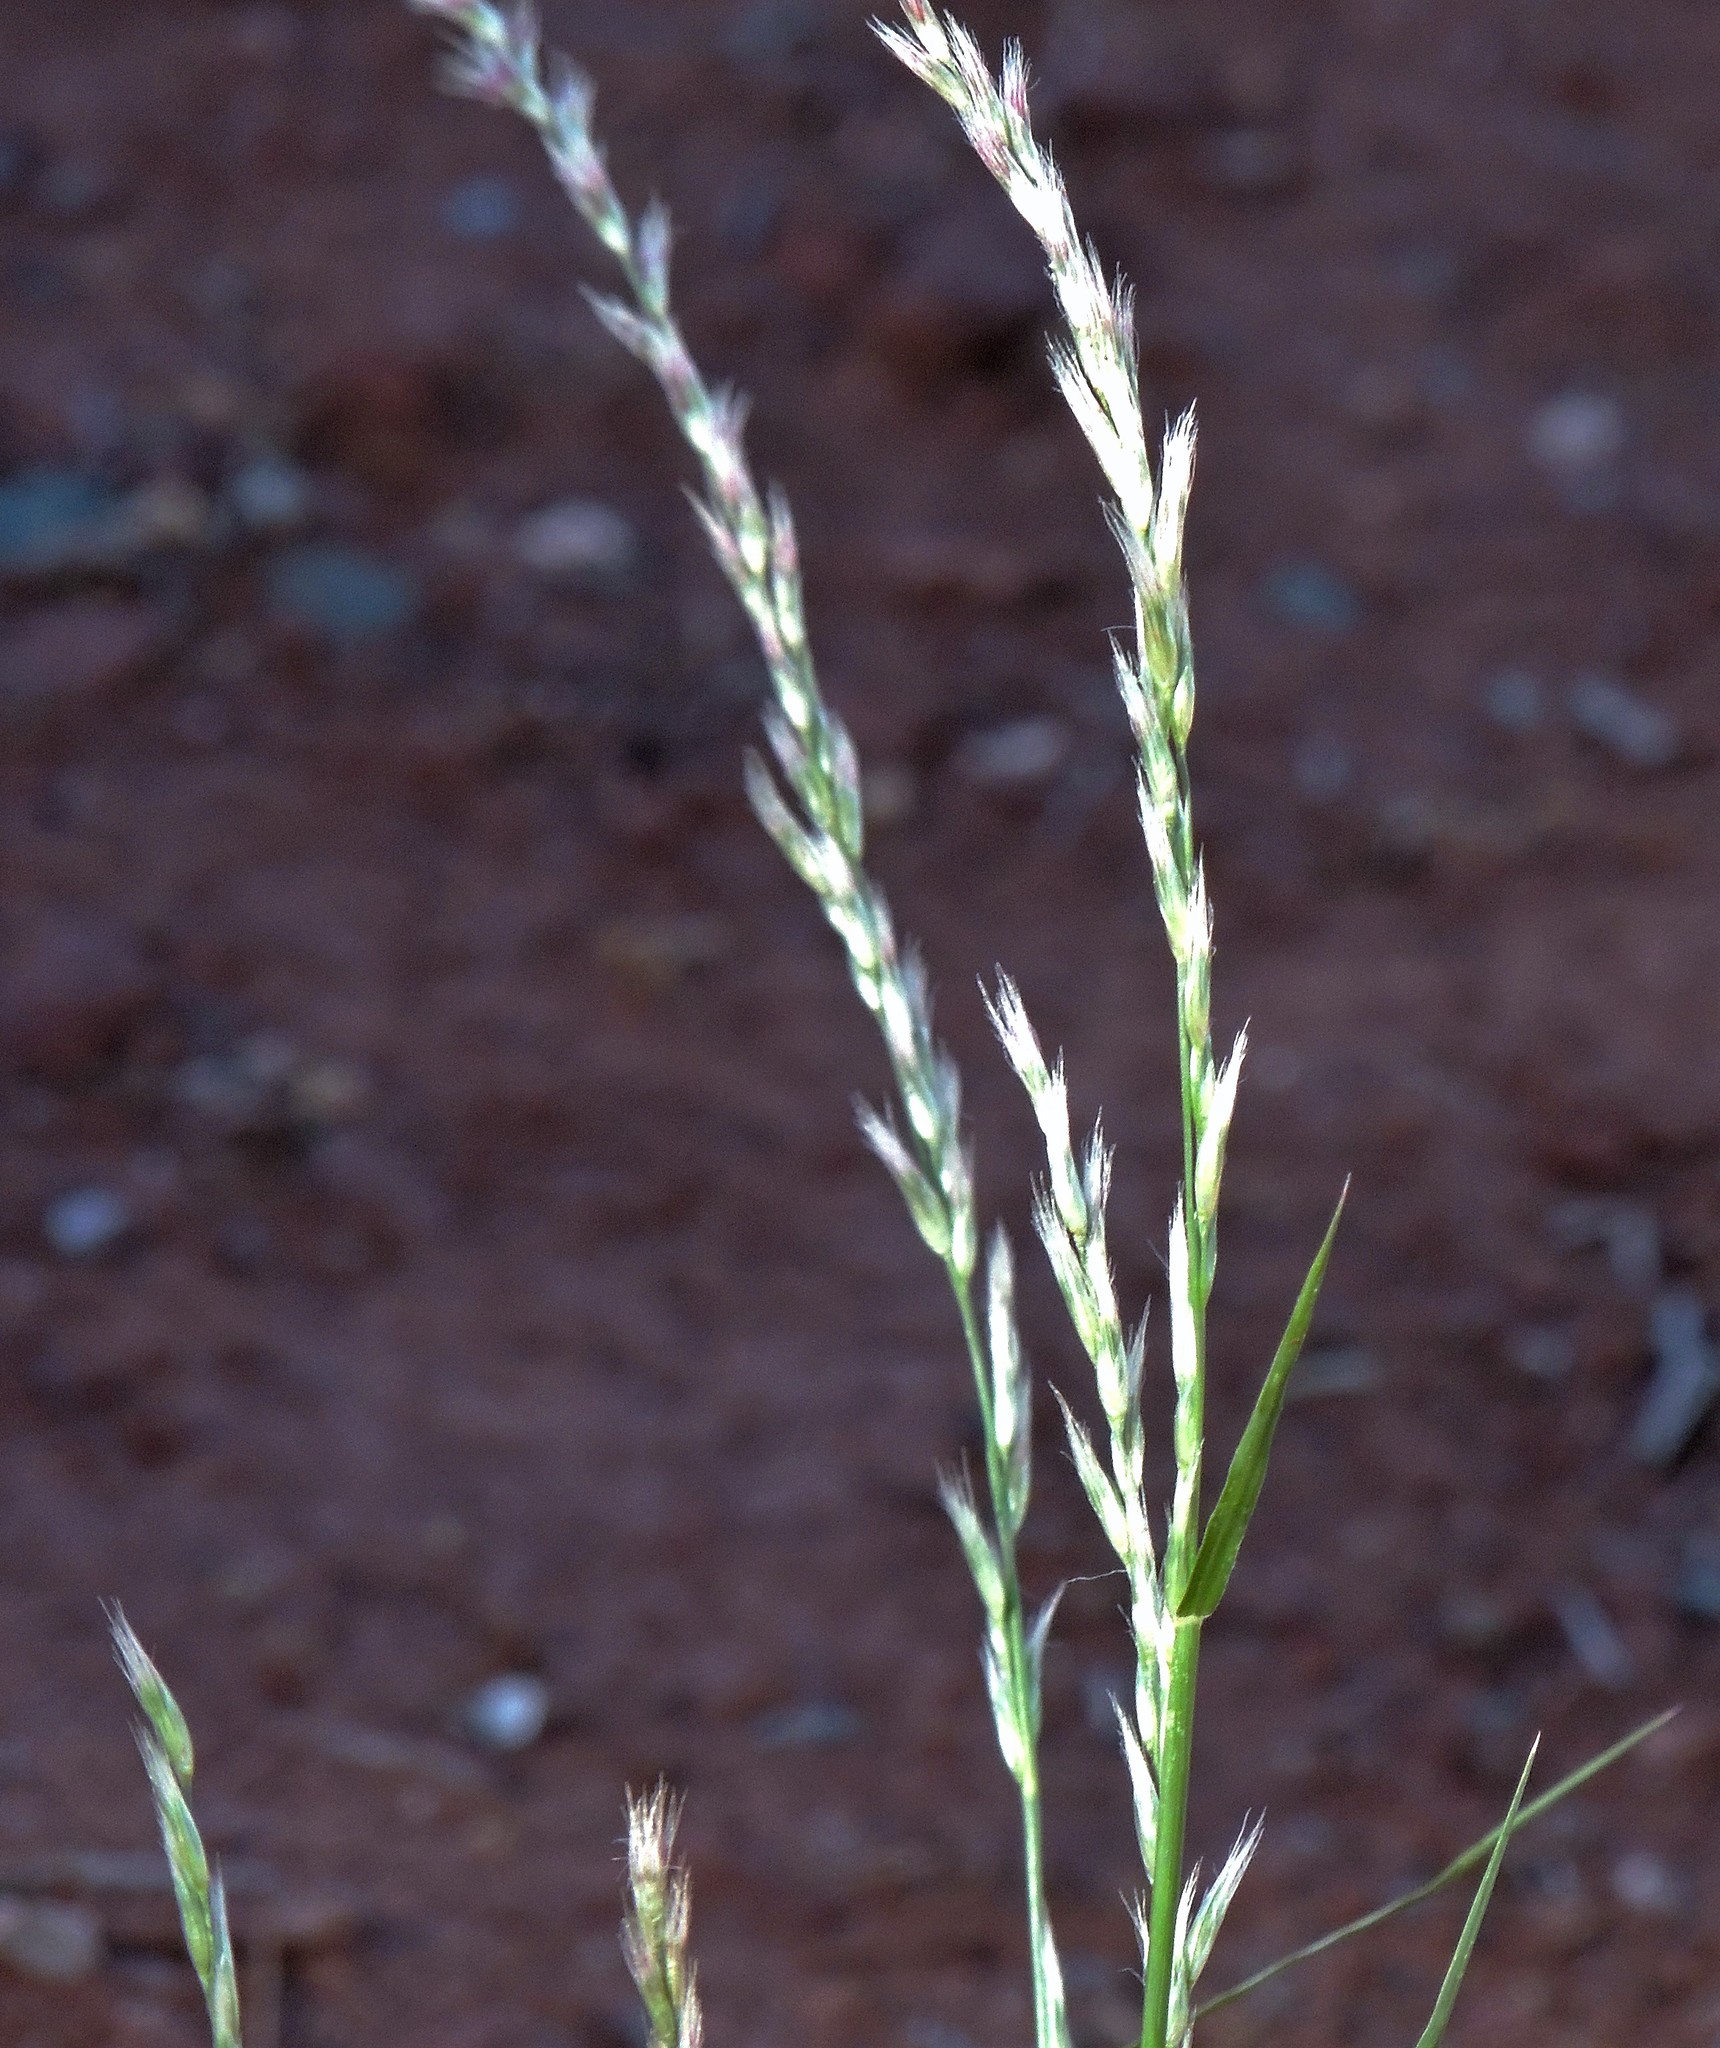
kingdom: Plantae
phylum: Tracheophyta
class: Liliopsida
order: Poales
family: Poaceae
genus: Pappophorum
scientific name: Pappophorum
